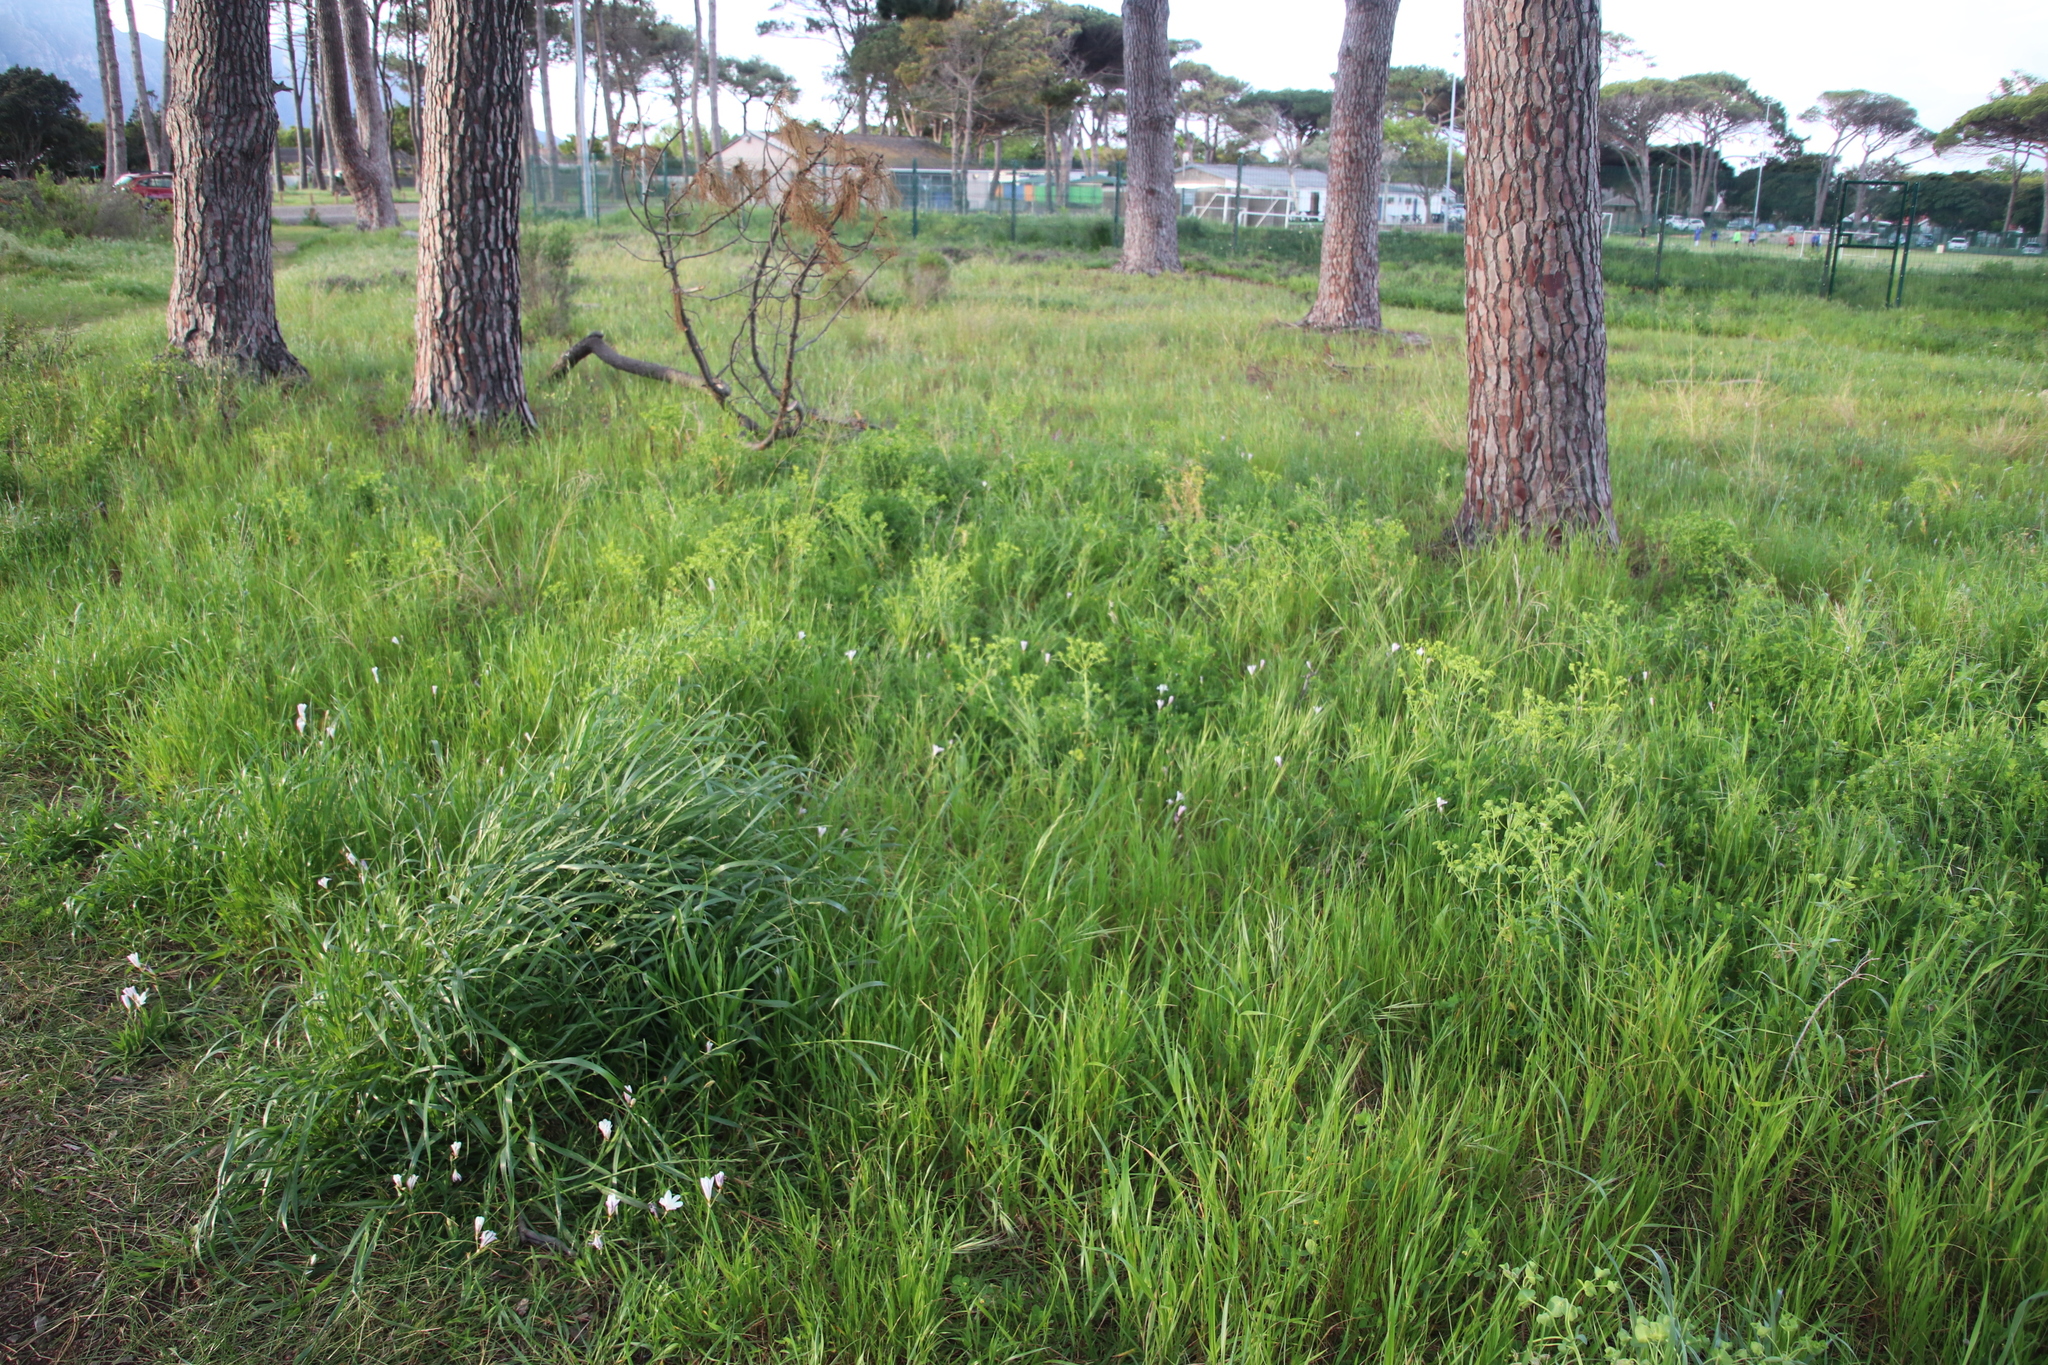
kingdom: Plantae
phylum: Tracheophyta
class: Magnoliopsida
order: Malpighiales
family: Euphorbiaceae
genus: Euphorbia
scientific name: Euphorbia terracina
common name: Geraldton carnation weed
